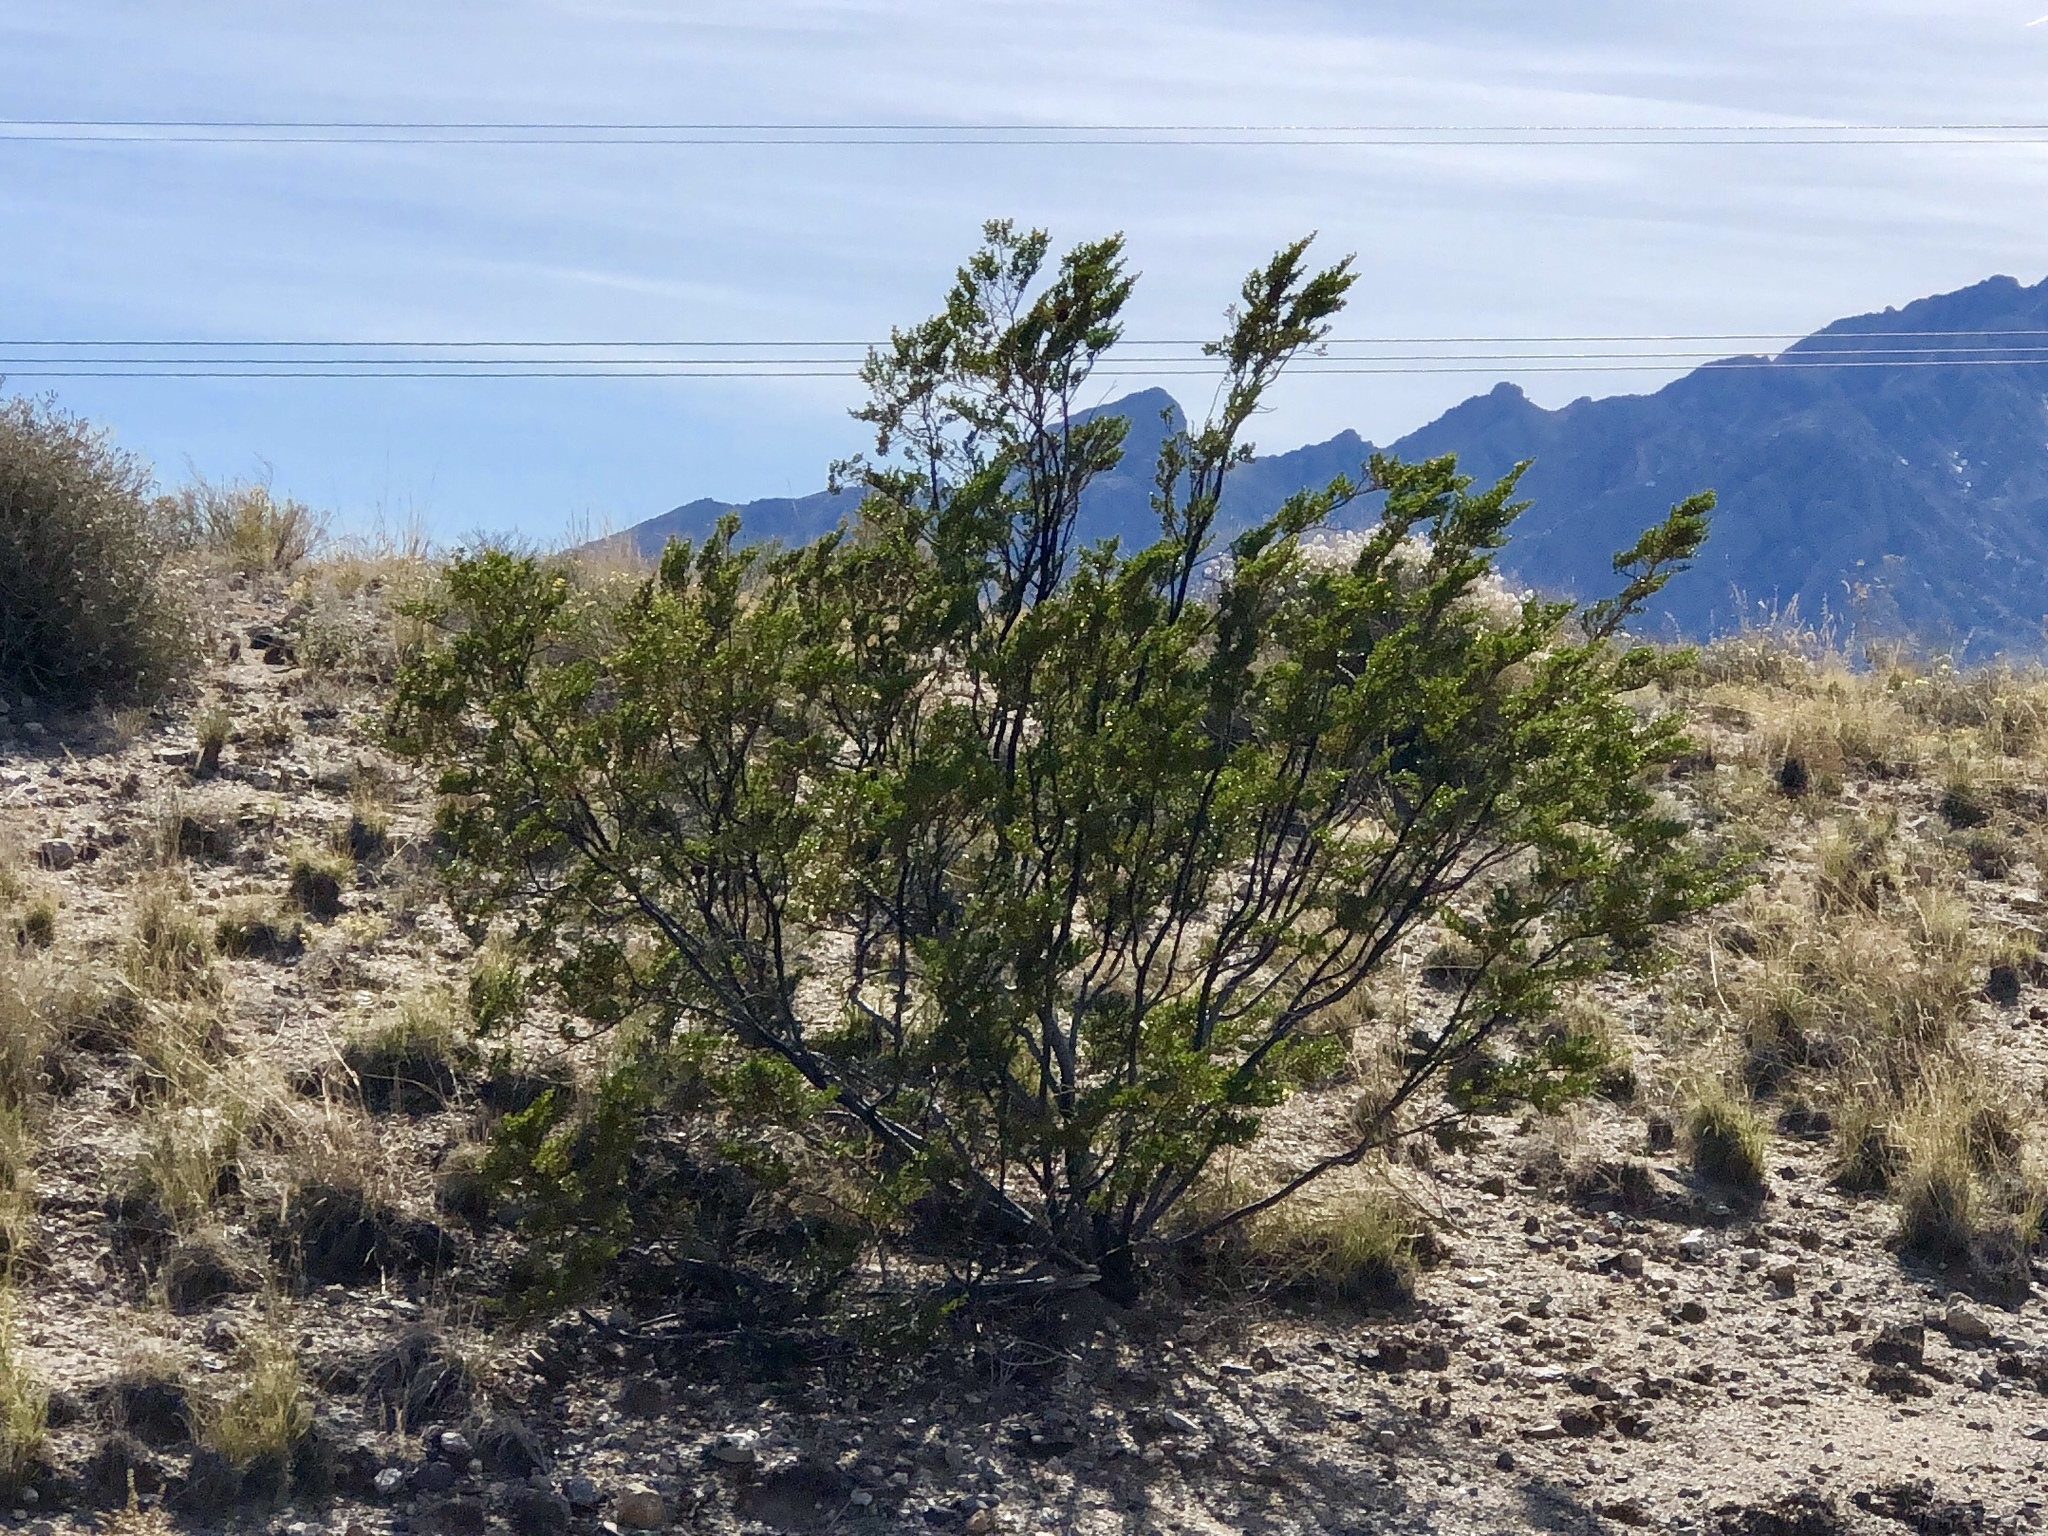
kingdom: Plantae
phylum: Tracheophyta
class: Magnoliopsida
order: Zygophyllales
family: Zygophyllaceae
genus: Larrea
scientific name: Larrea tridentata
